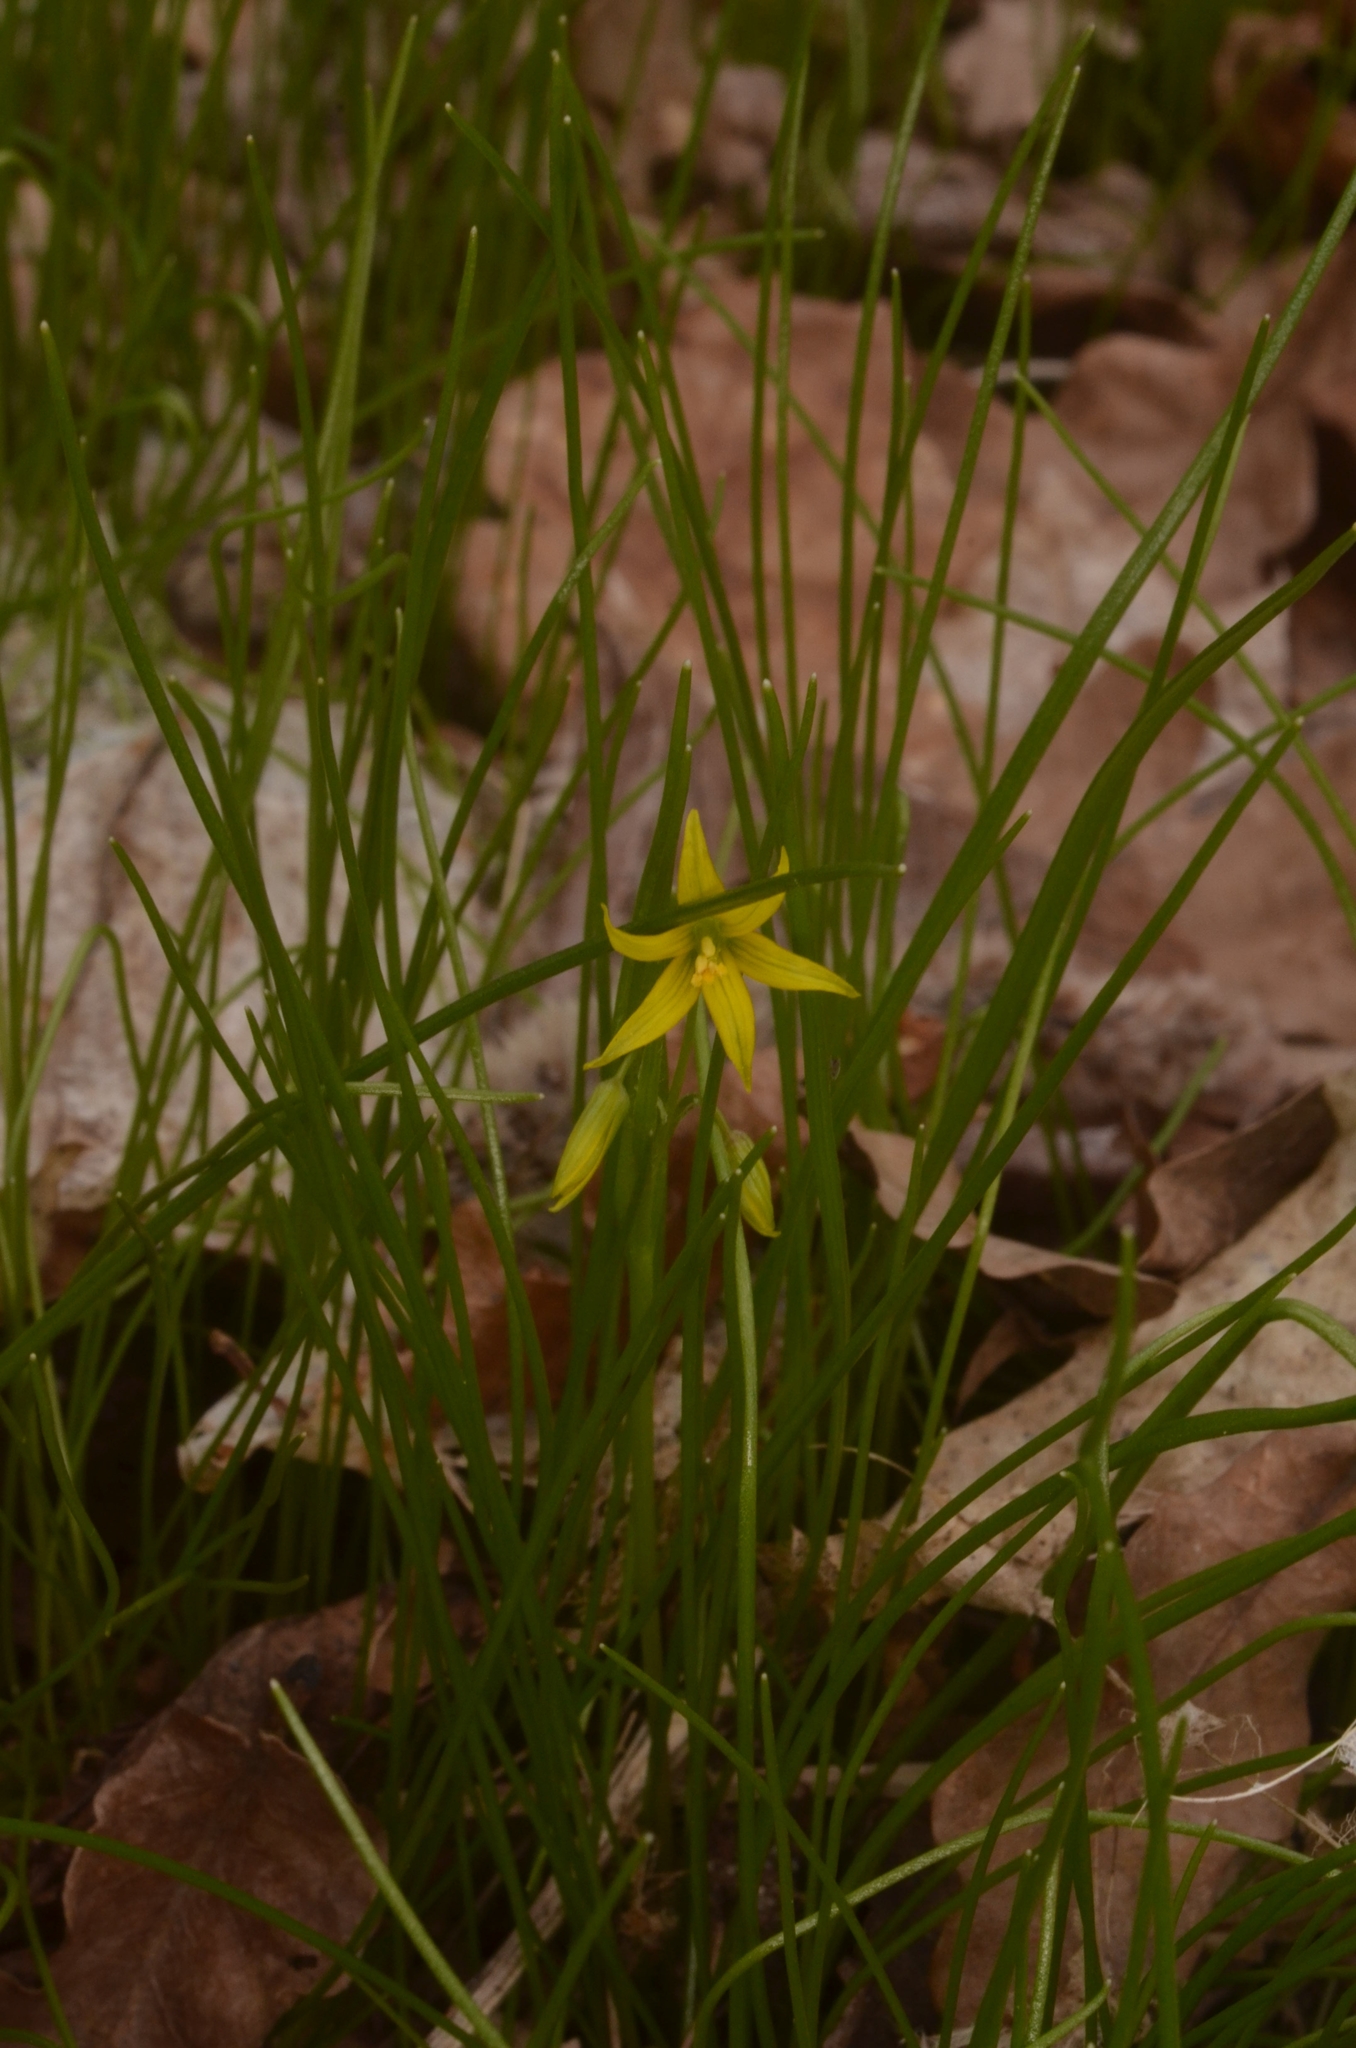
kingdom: Plantae
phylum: Tracheophyta
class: Liliopsida
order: Liliales
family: Liliaceae
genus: Gagea
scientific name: Gagea minima
